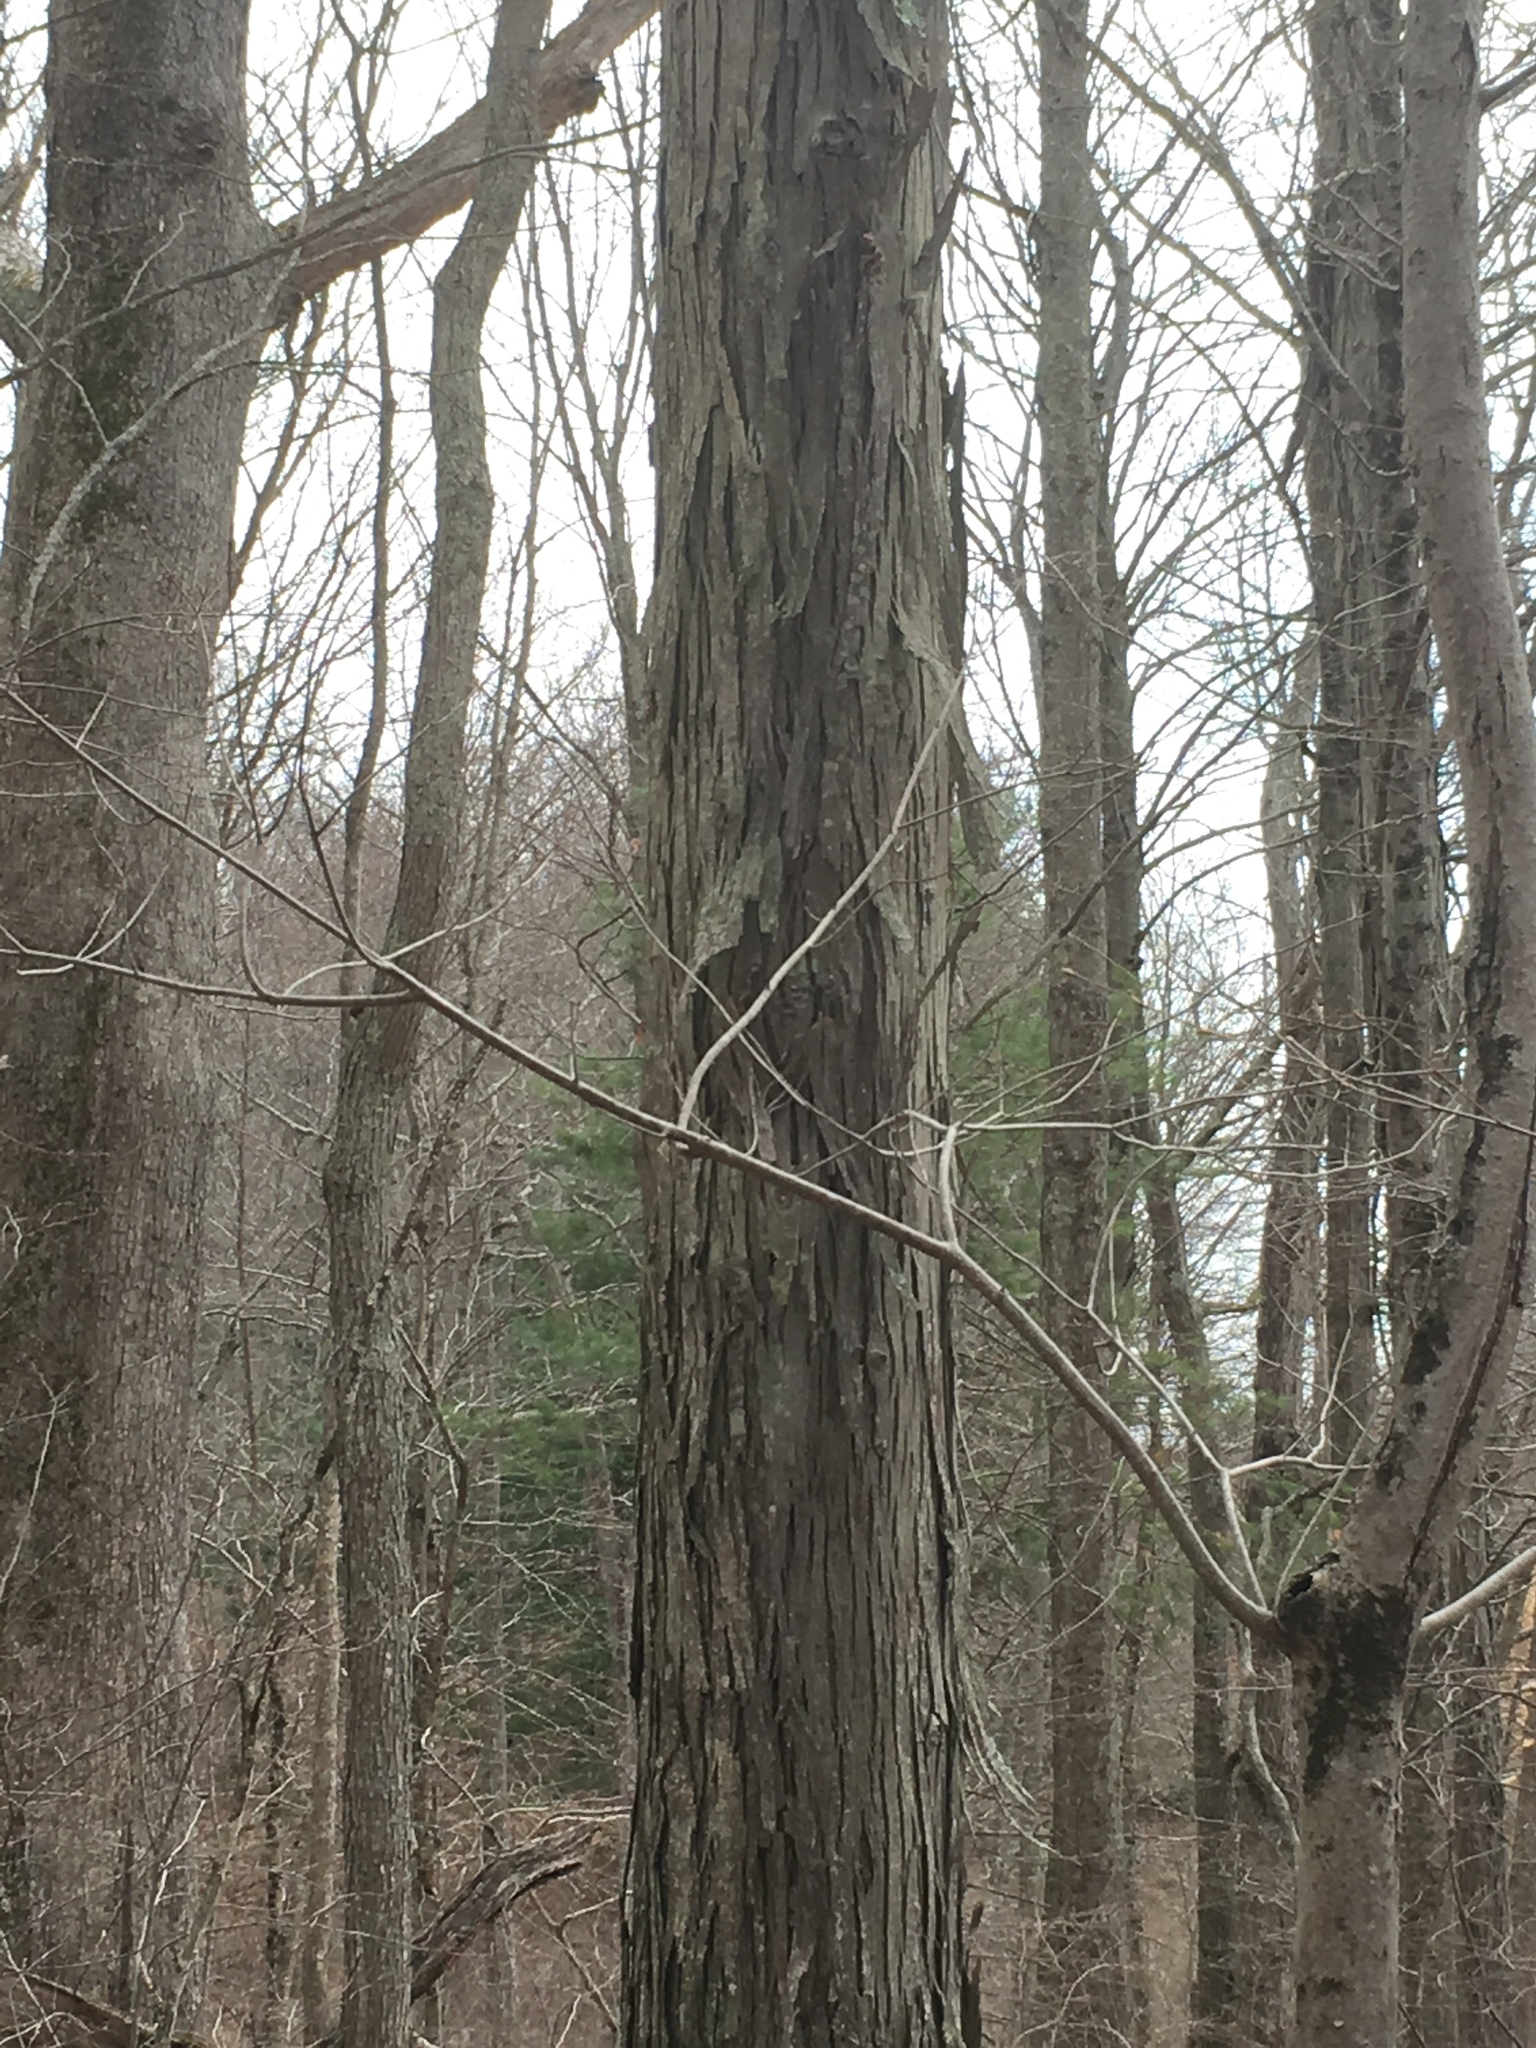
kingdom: Plantae
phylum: Tracheophyta
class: Magnoliopsida
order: Fagales
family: Juglandaceae
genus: Carya
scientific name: Carya ovata
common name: Shagbark hickory
